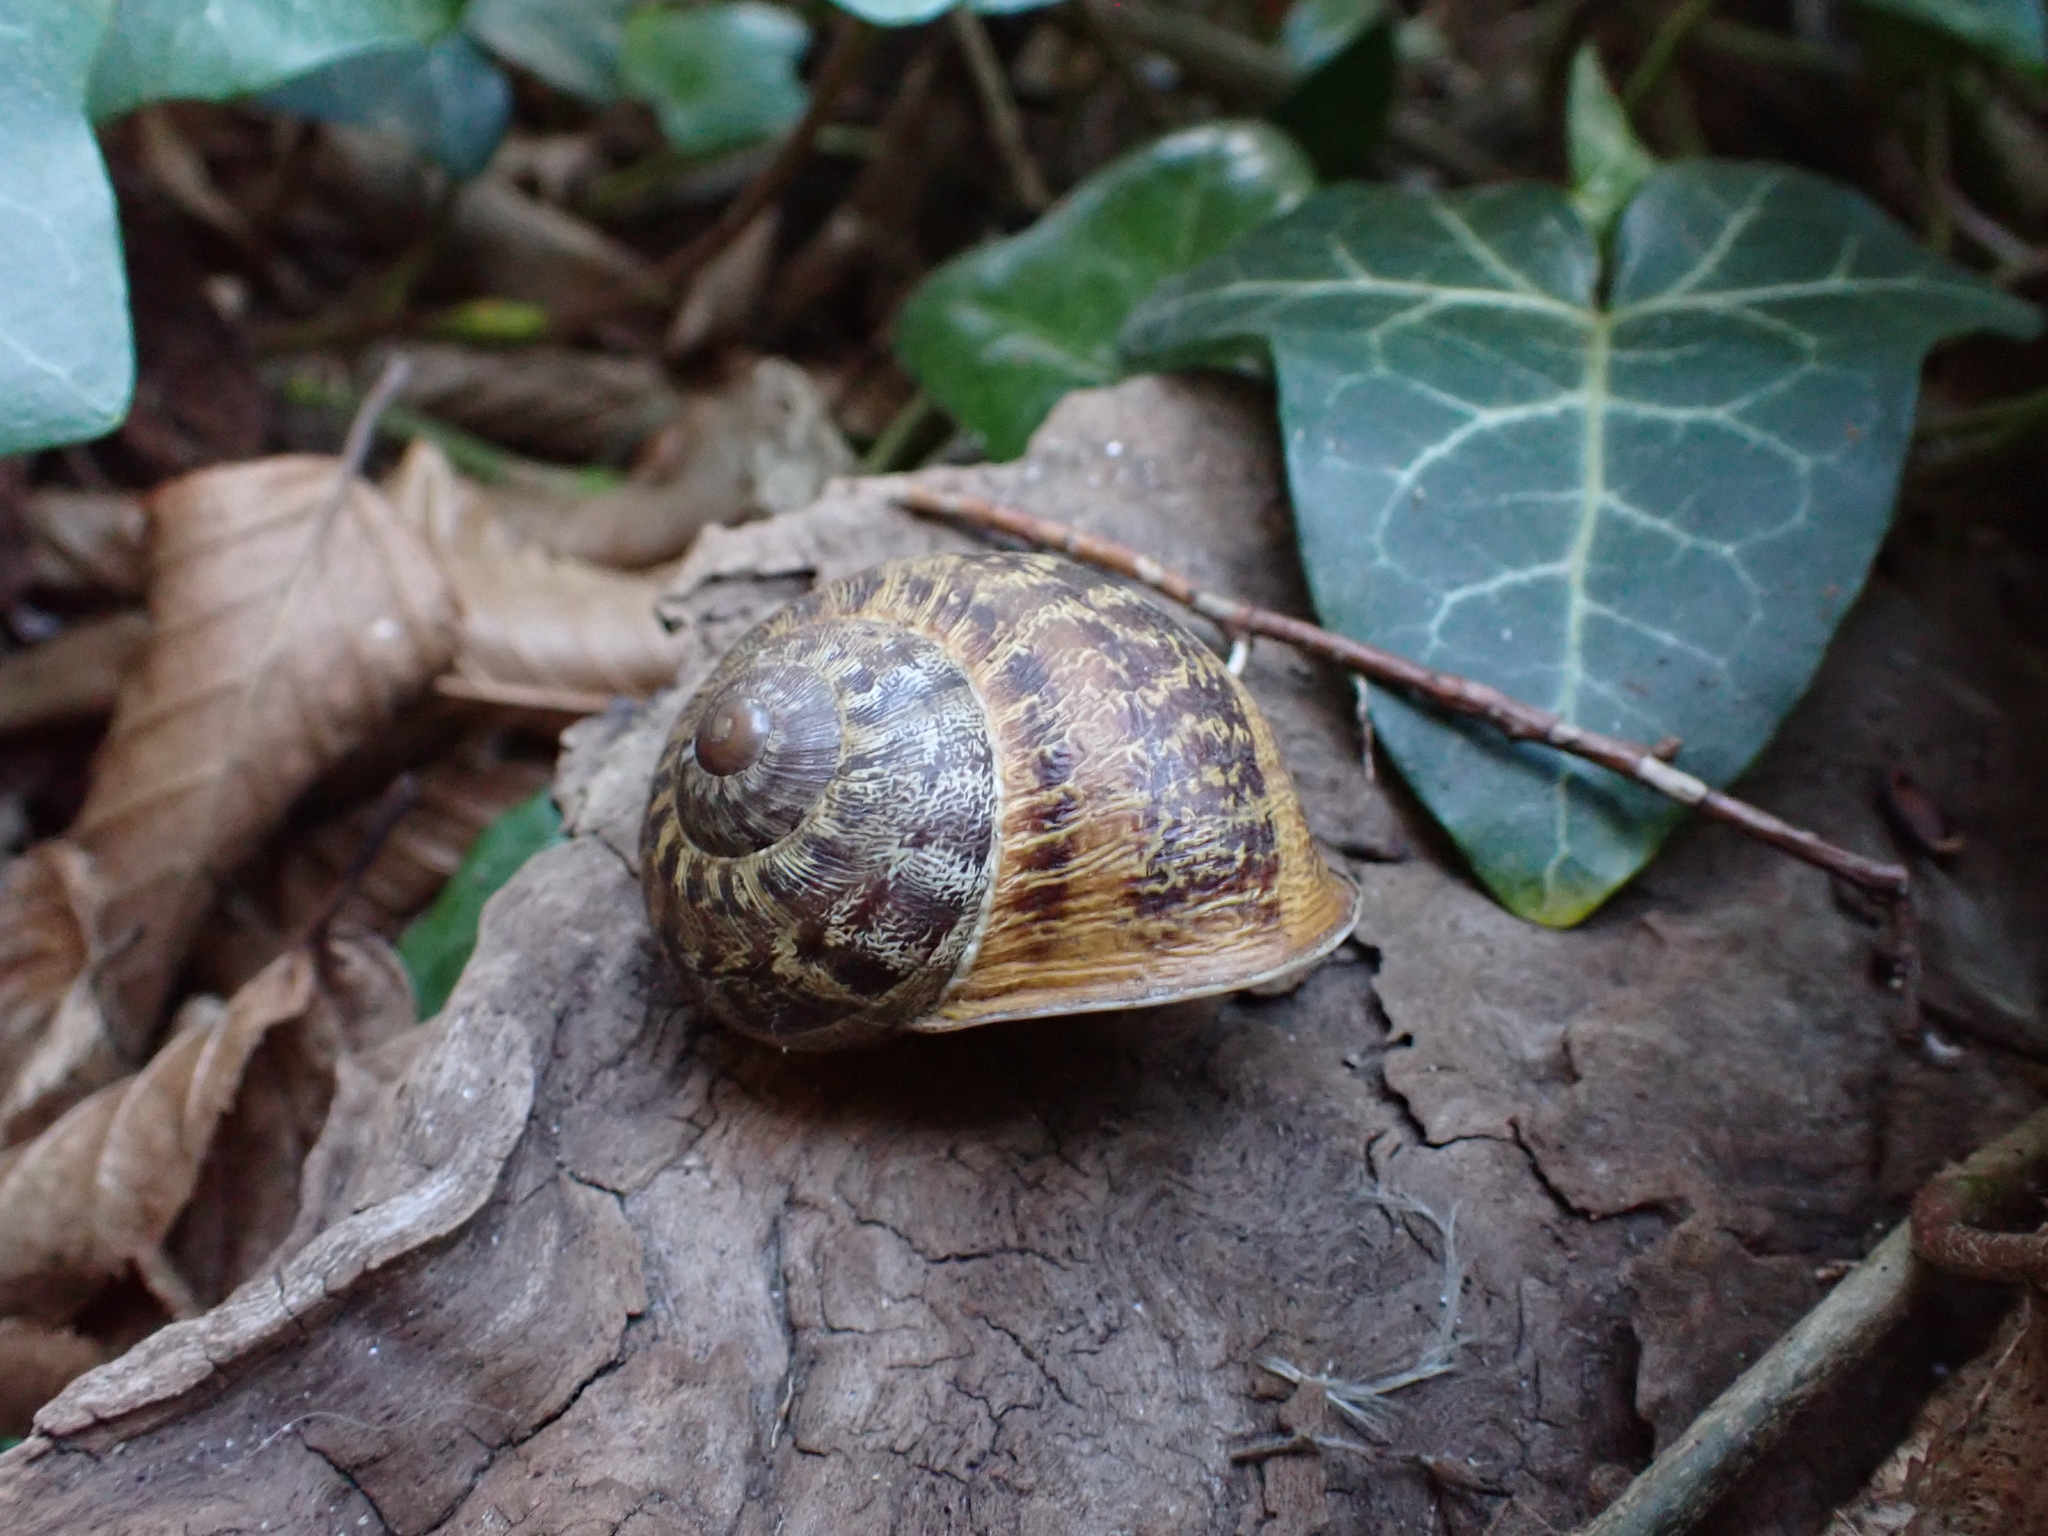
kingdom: Animalia
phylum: Mollusca
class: Gastropoda
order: Stylommatophora
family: Helicidae
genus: Cornu
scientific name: Cornu aspersum
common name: Brown garden snail
